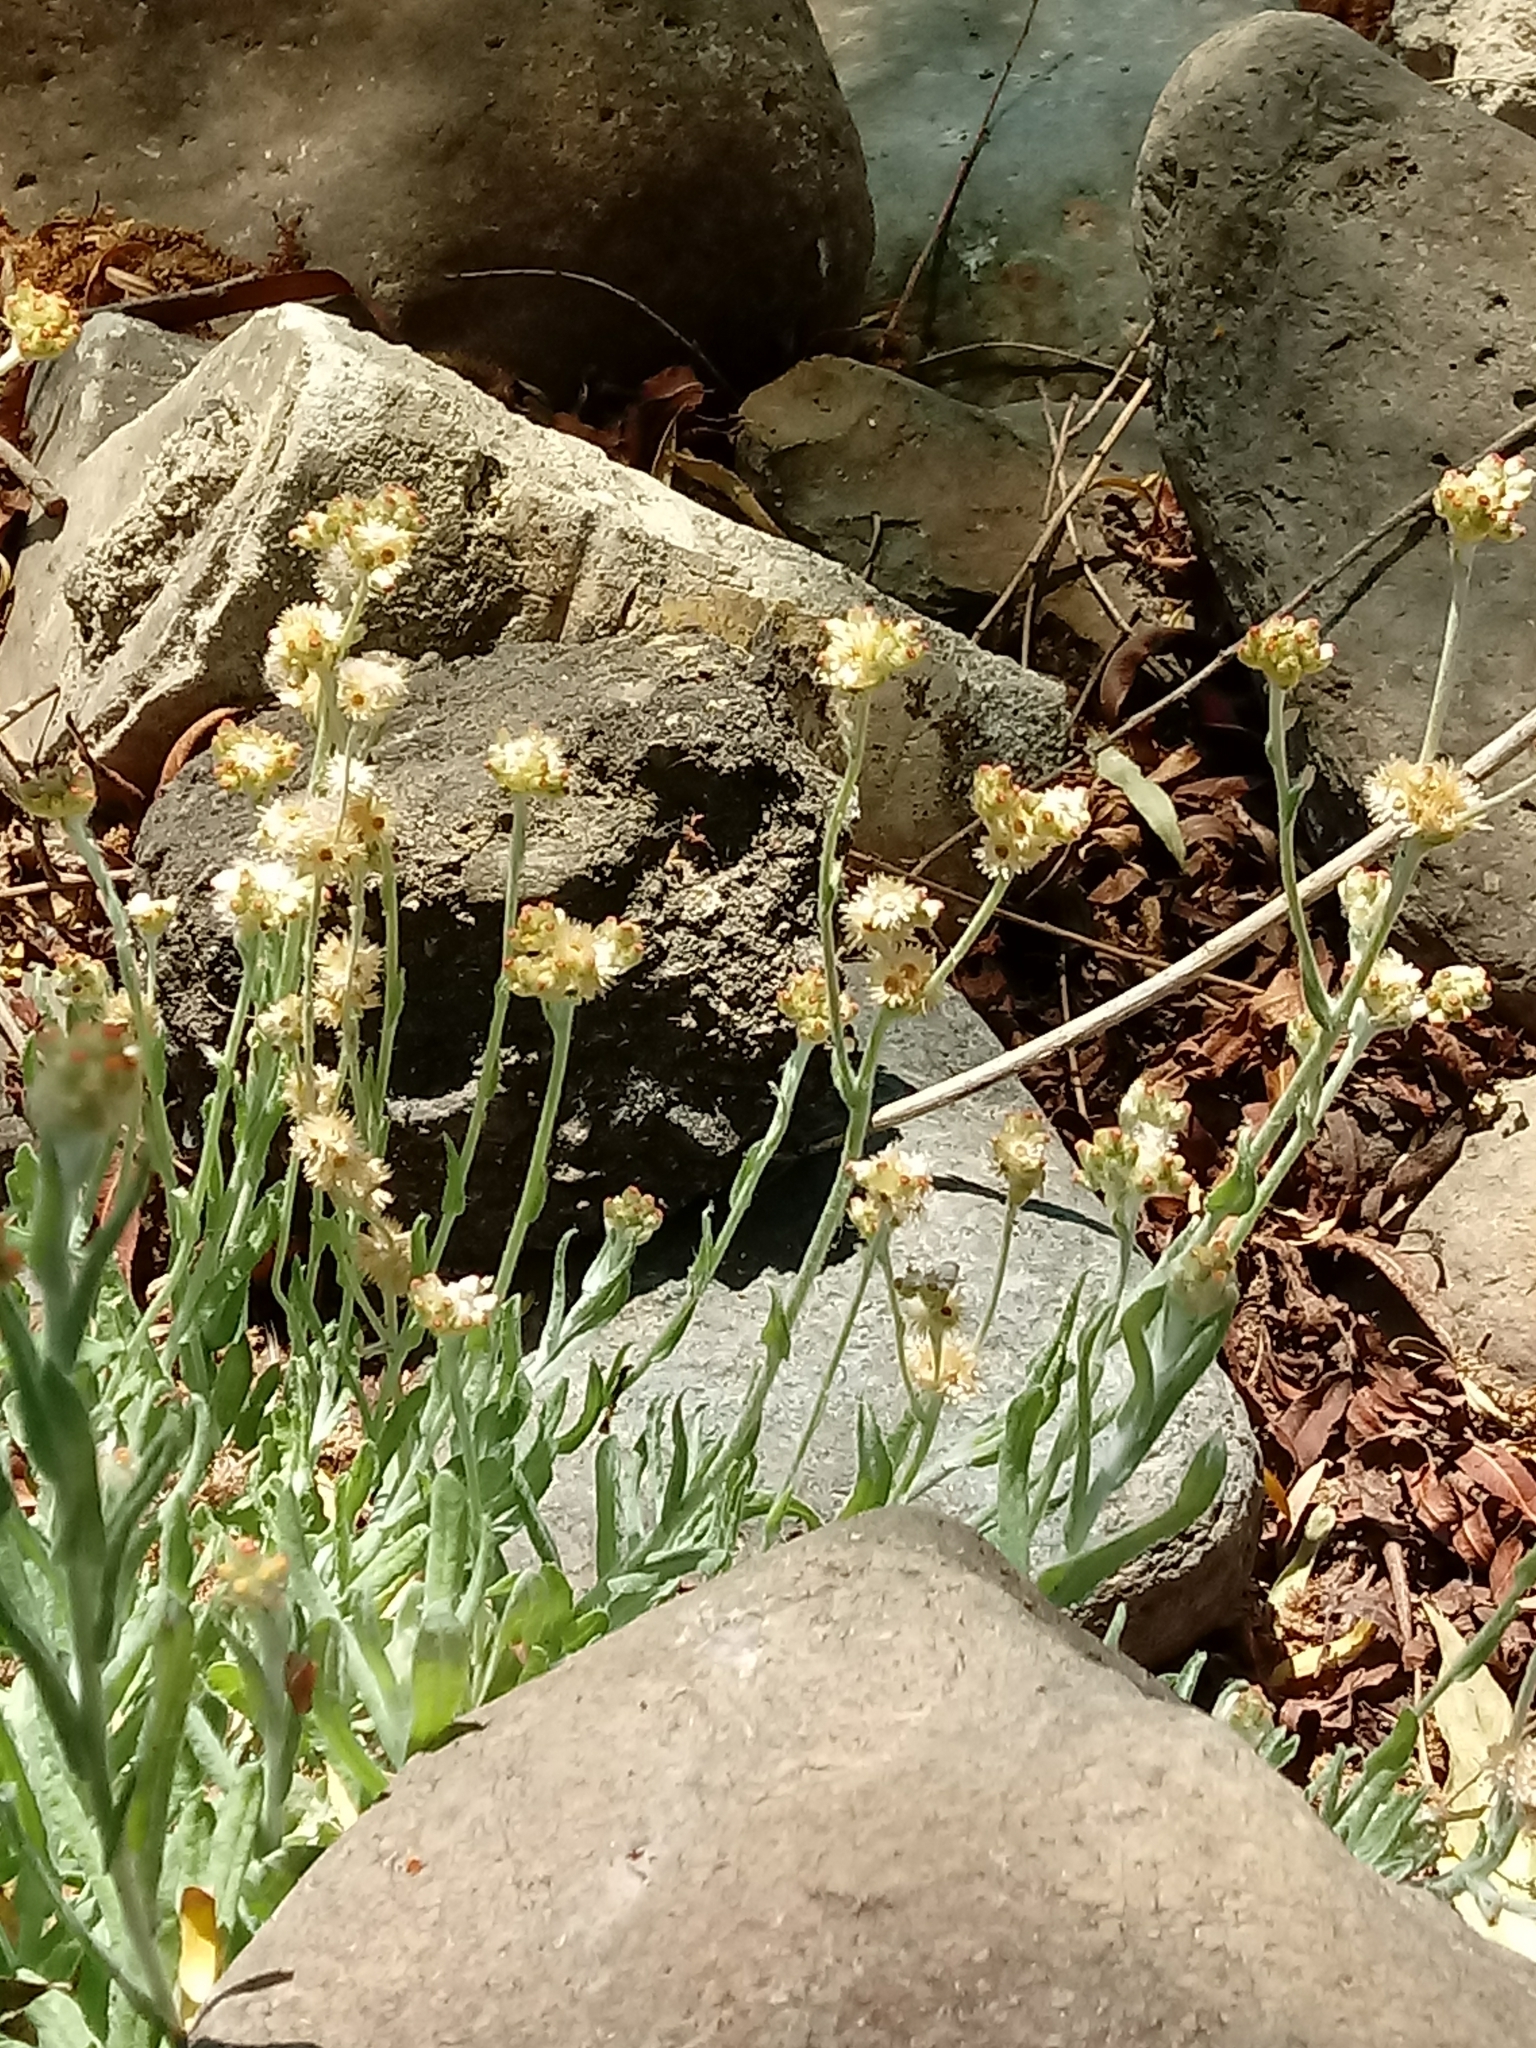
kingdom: Plantae
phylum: Tracheophyta
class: Magnoliopsida
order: Asterales
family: Asteraceae
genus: Helichrysum
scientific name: Helichrysum luteoalbum
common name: Daisy
